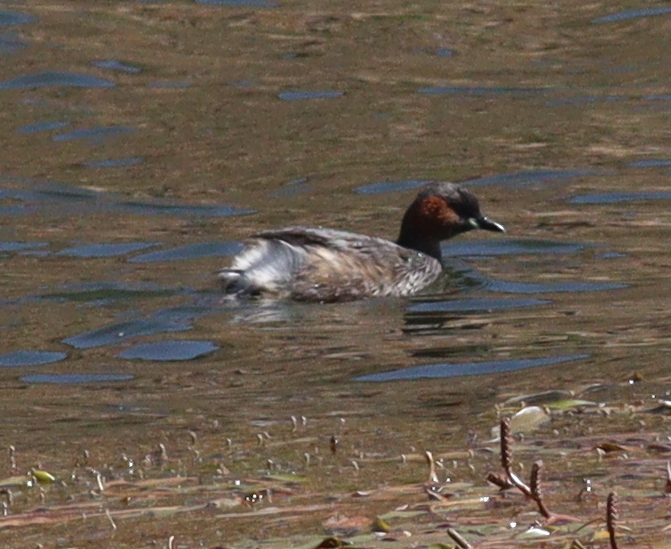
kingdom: Animalia
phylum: Chordata
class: Aves
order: Podicipediformes
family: Podicipedidae
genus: Tachybaptus
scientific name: Tachybaptus ruficollis
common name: Little grebe
